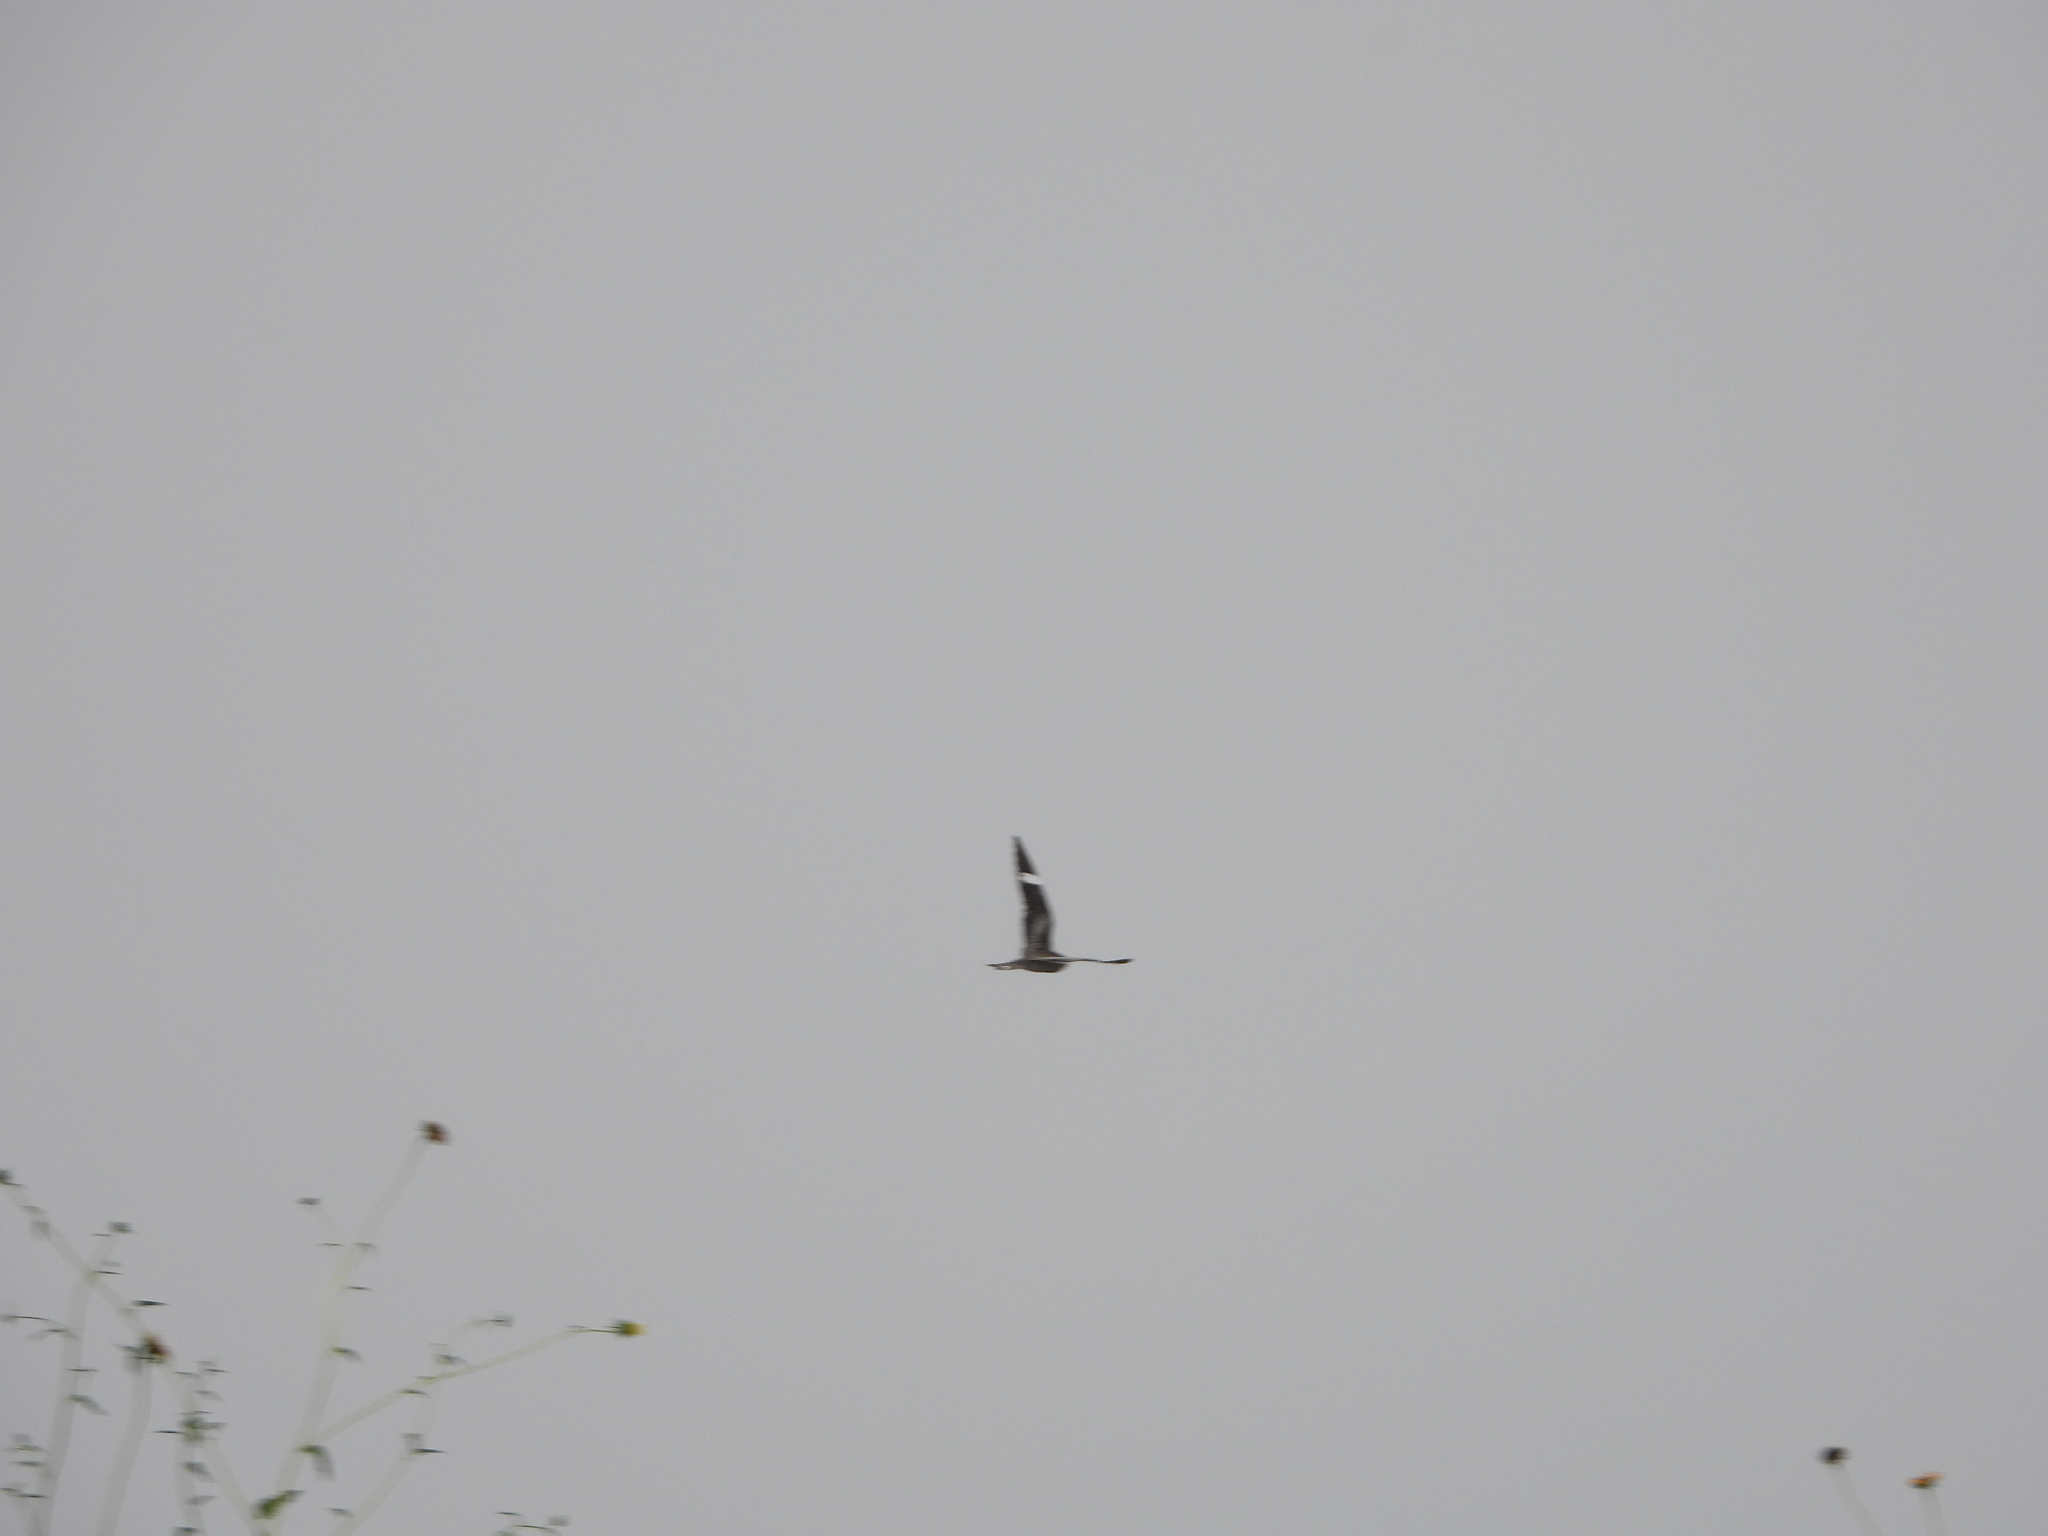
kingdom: Animalia
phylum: Chordata
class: Aves
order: Caprimulgiformes
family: Caprimulgidae
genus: Chordeiles
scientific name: Chordeiles minor
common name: Common nighthawk
